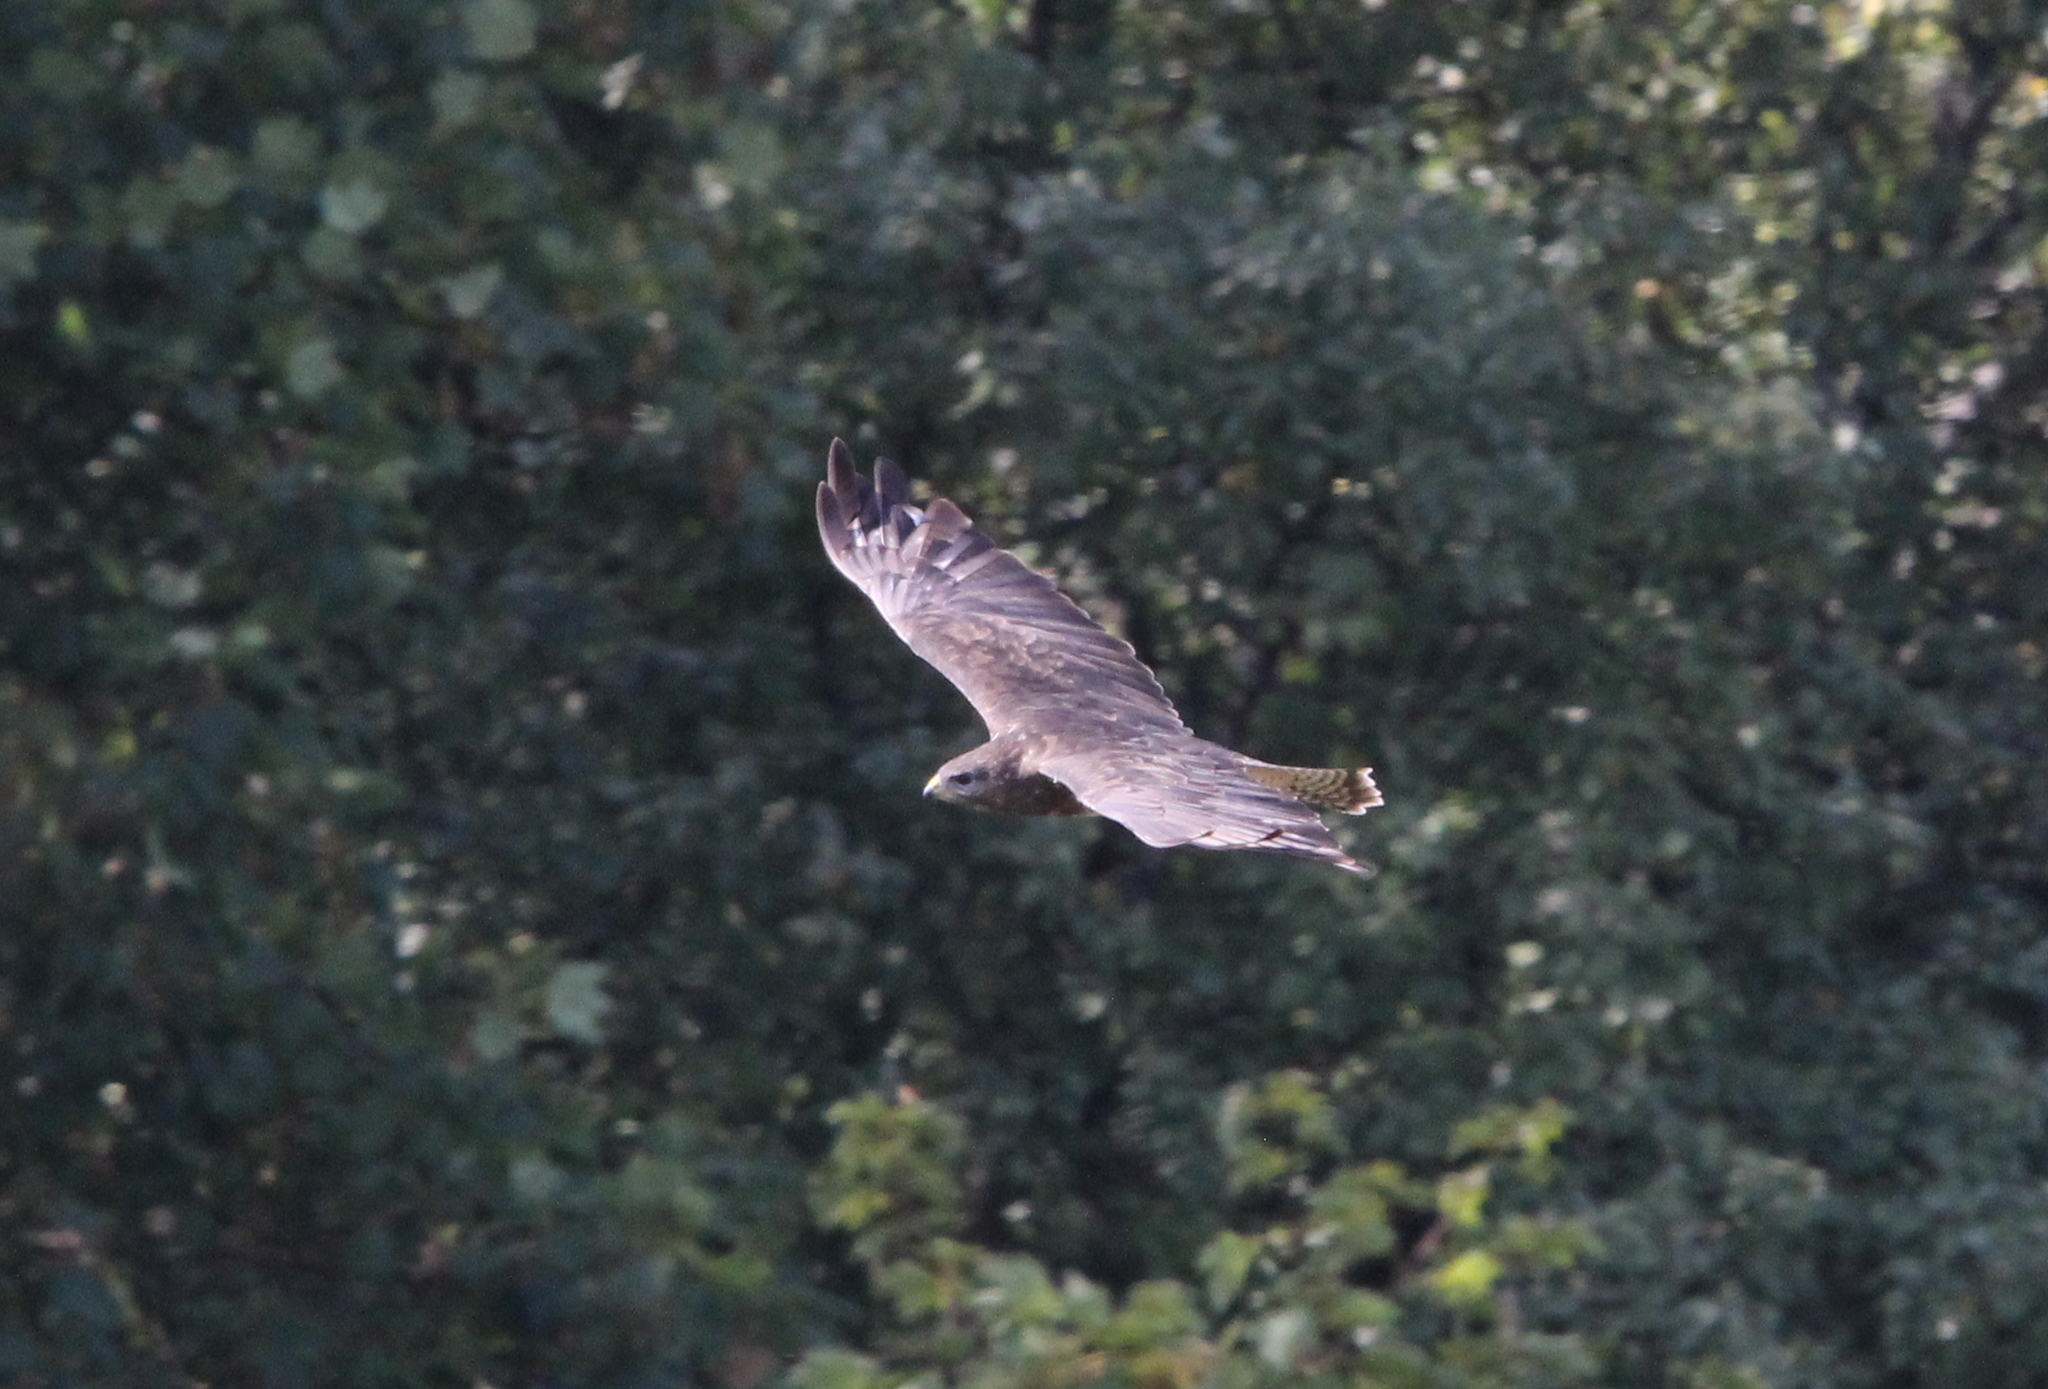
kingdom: Animalia
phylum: Chordata
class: Aves
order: Accipitriformes
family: Accipitridae
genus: Buteo
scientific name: Buteo buteo
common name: Common buzzard
